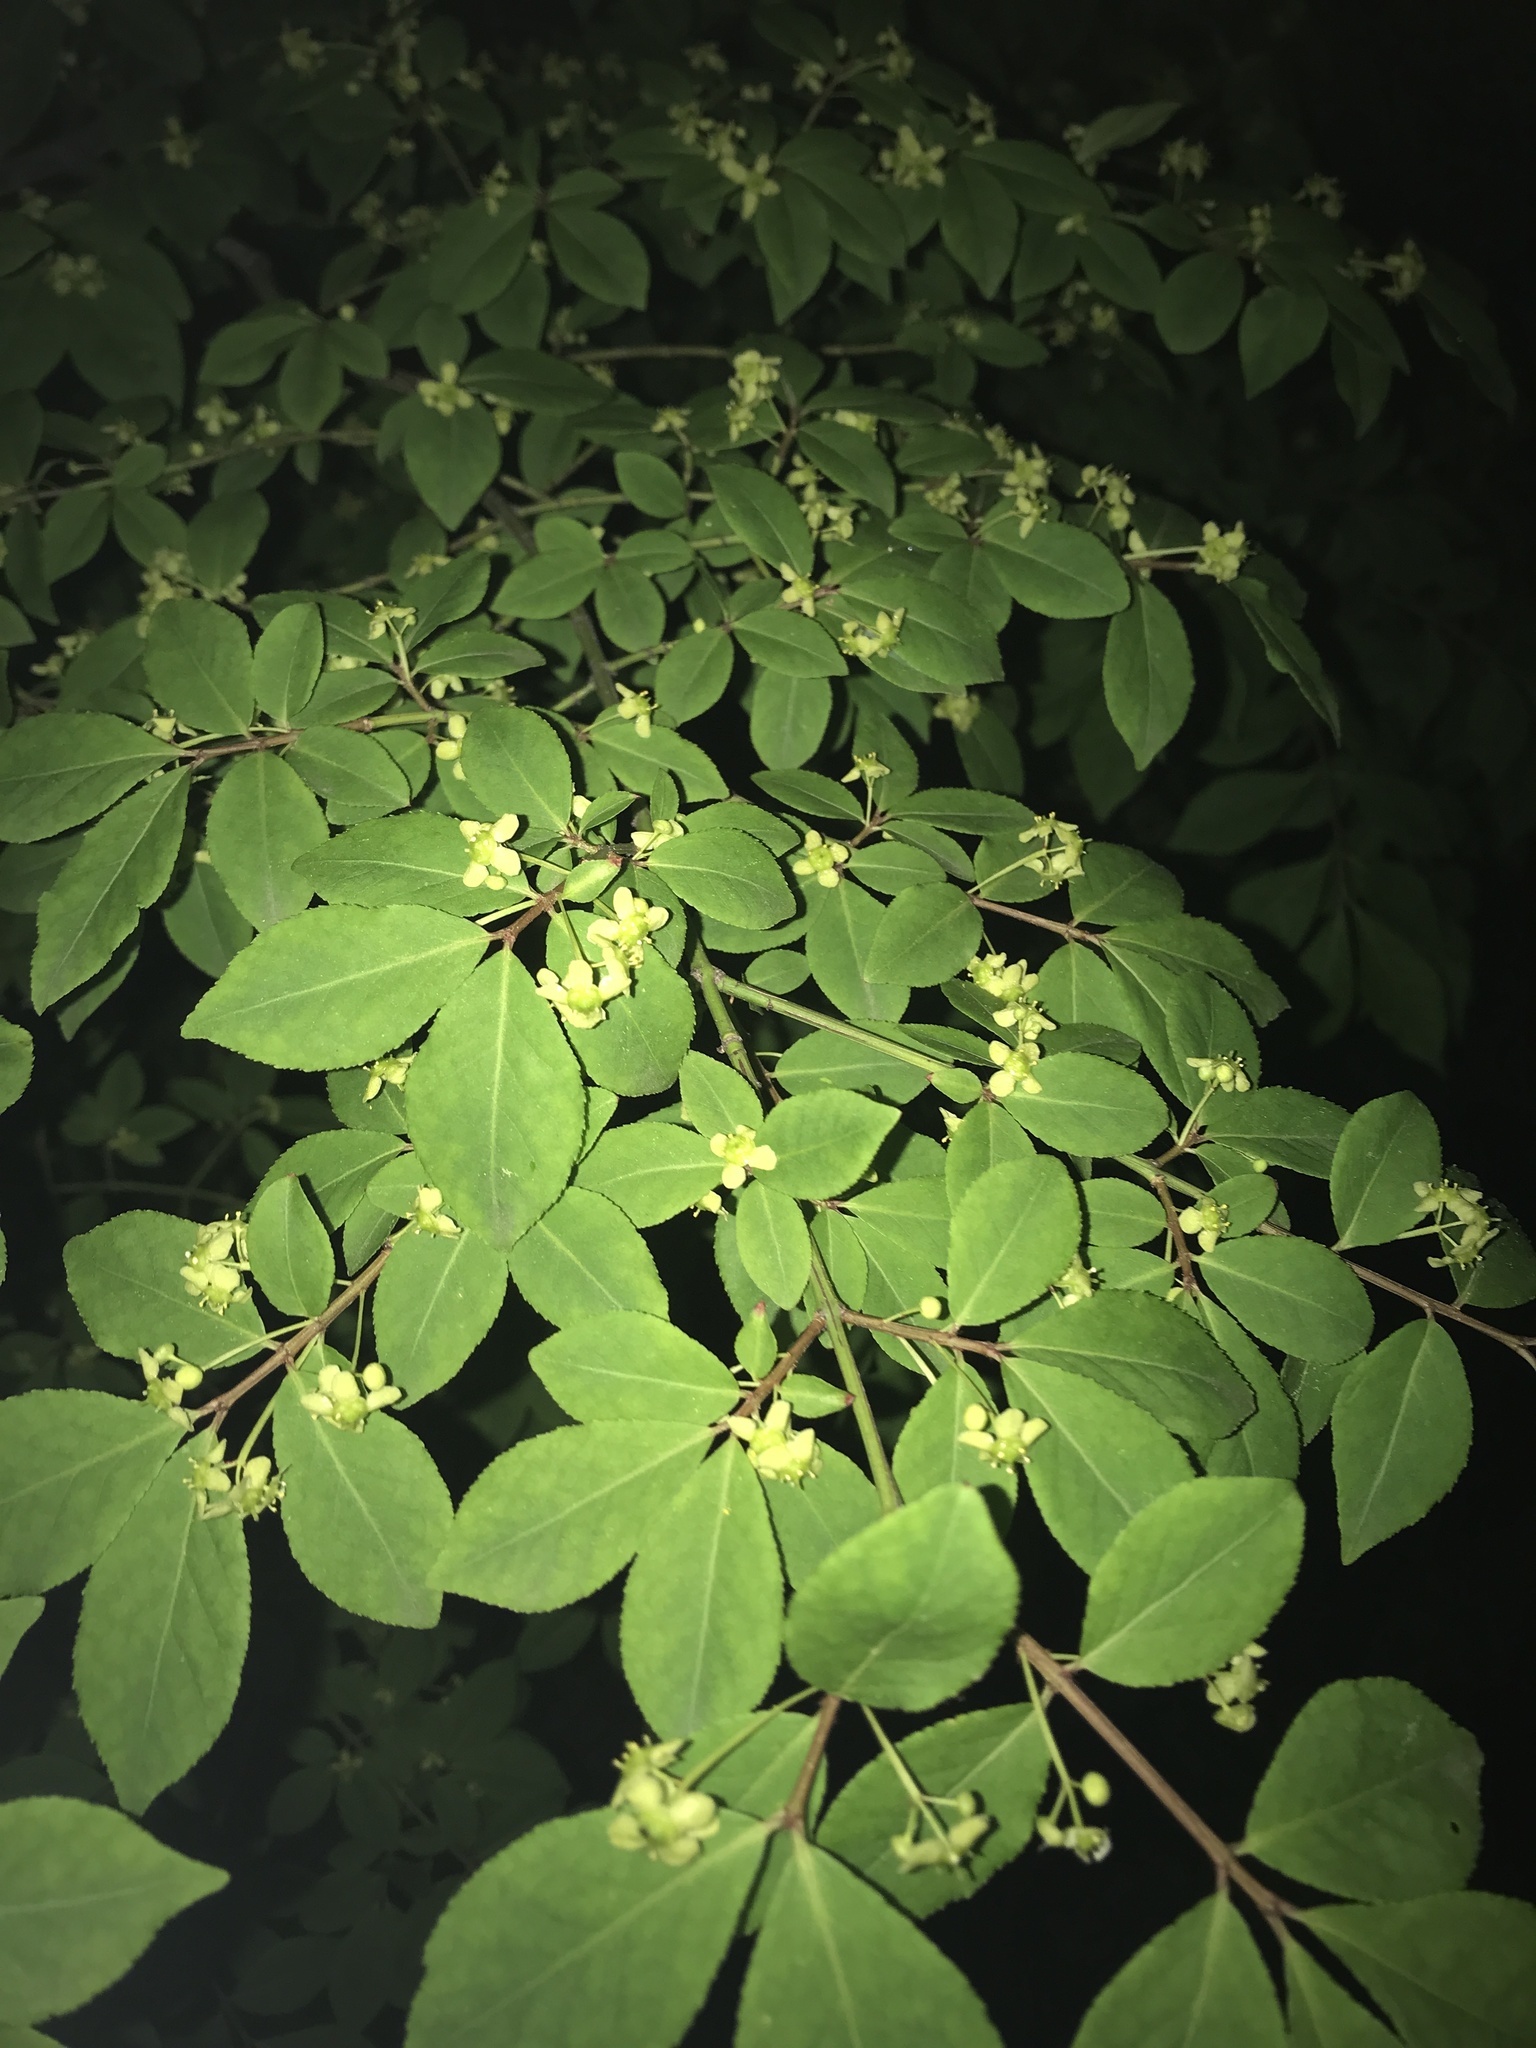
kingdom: Plantae
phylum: Tracheophyta
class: Magnoliopsida
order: Celastrales
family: Celastraceae
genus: Euonymus
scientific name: Euonymus alatus
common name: Winged euonymus
